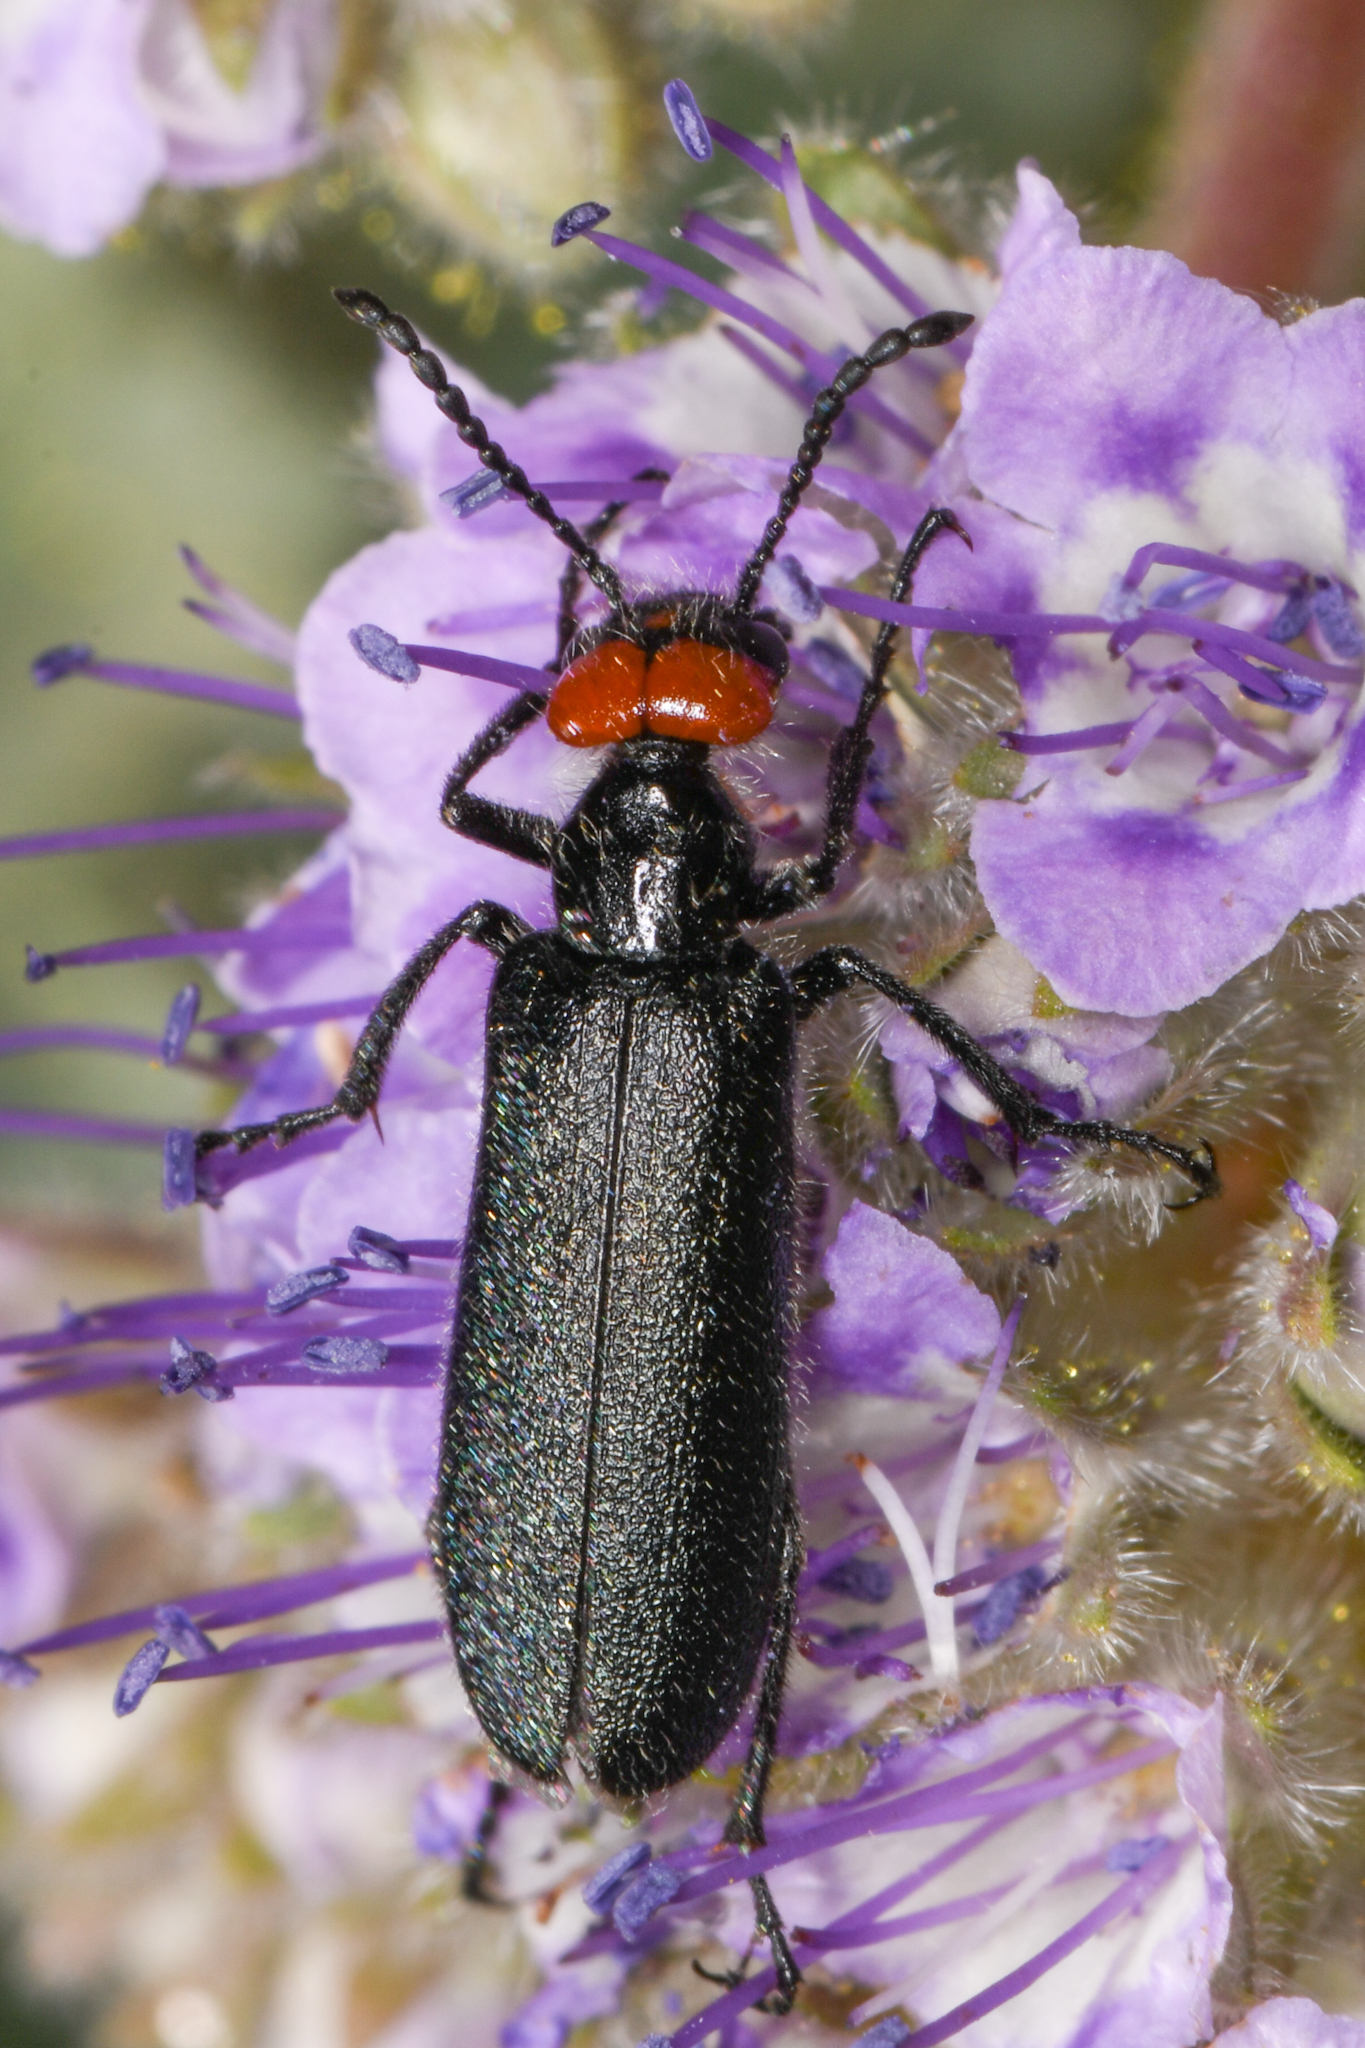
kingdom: Animalia
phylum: Arthropoda
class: Insecta
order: Coleoptera
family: Meloidae
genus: Lytta
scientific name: Lytta auriculata
